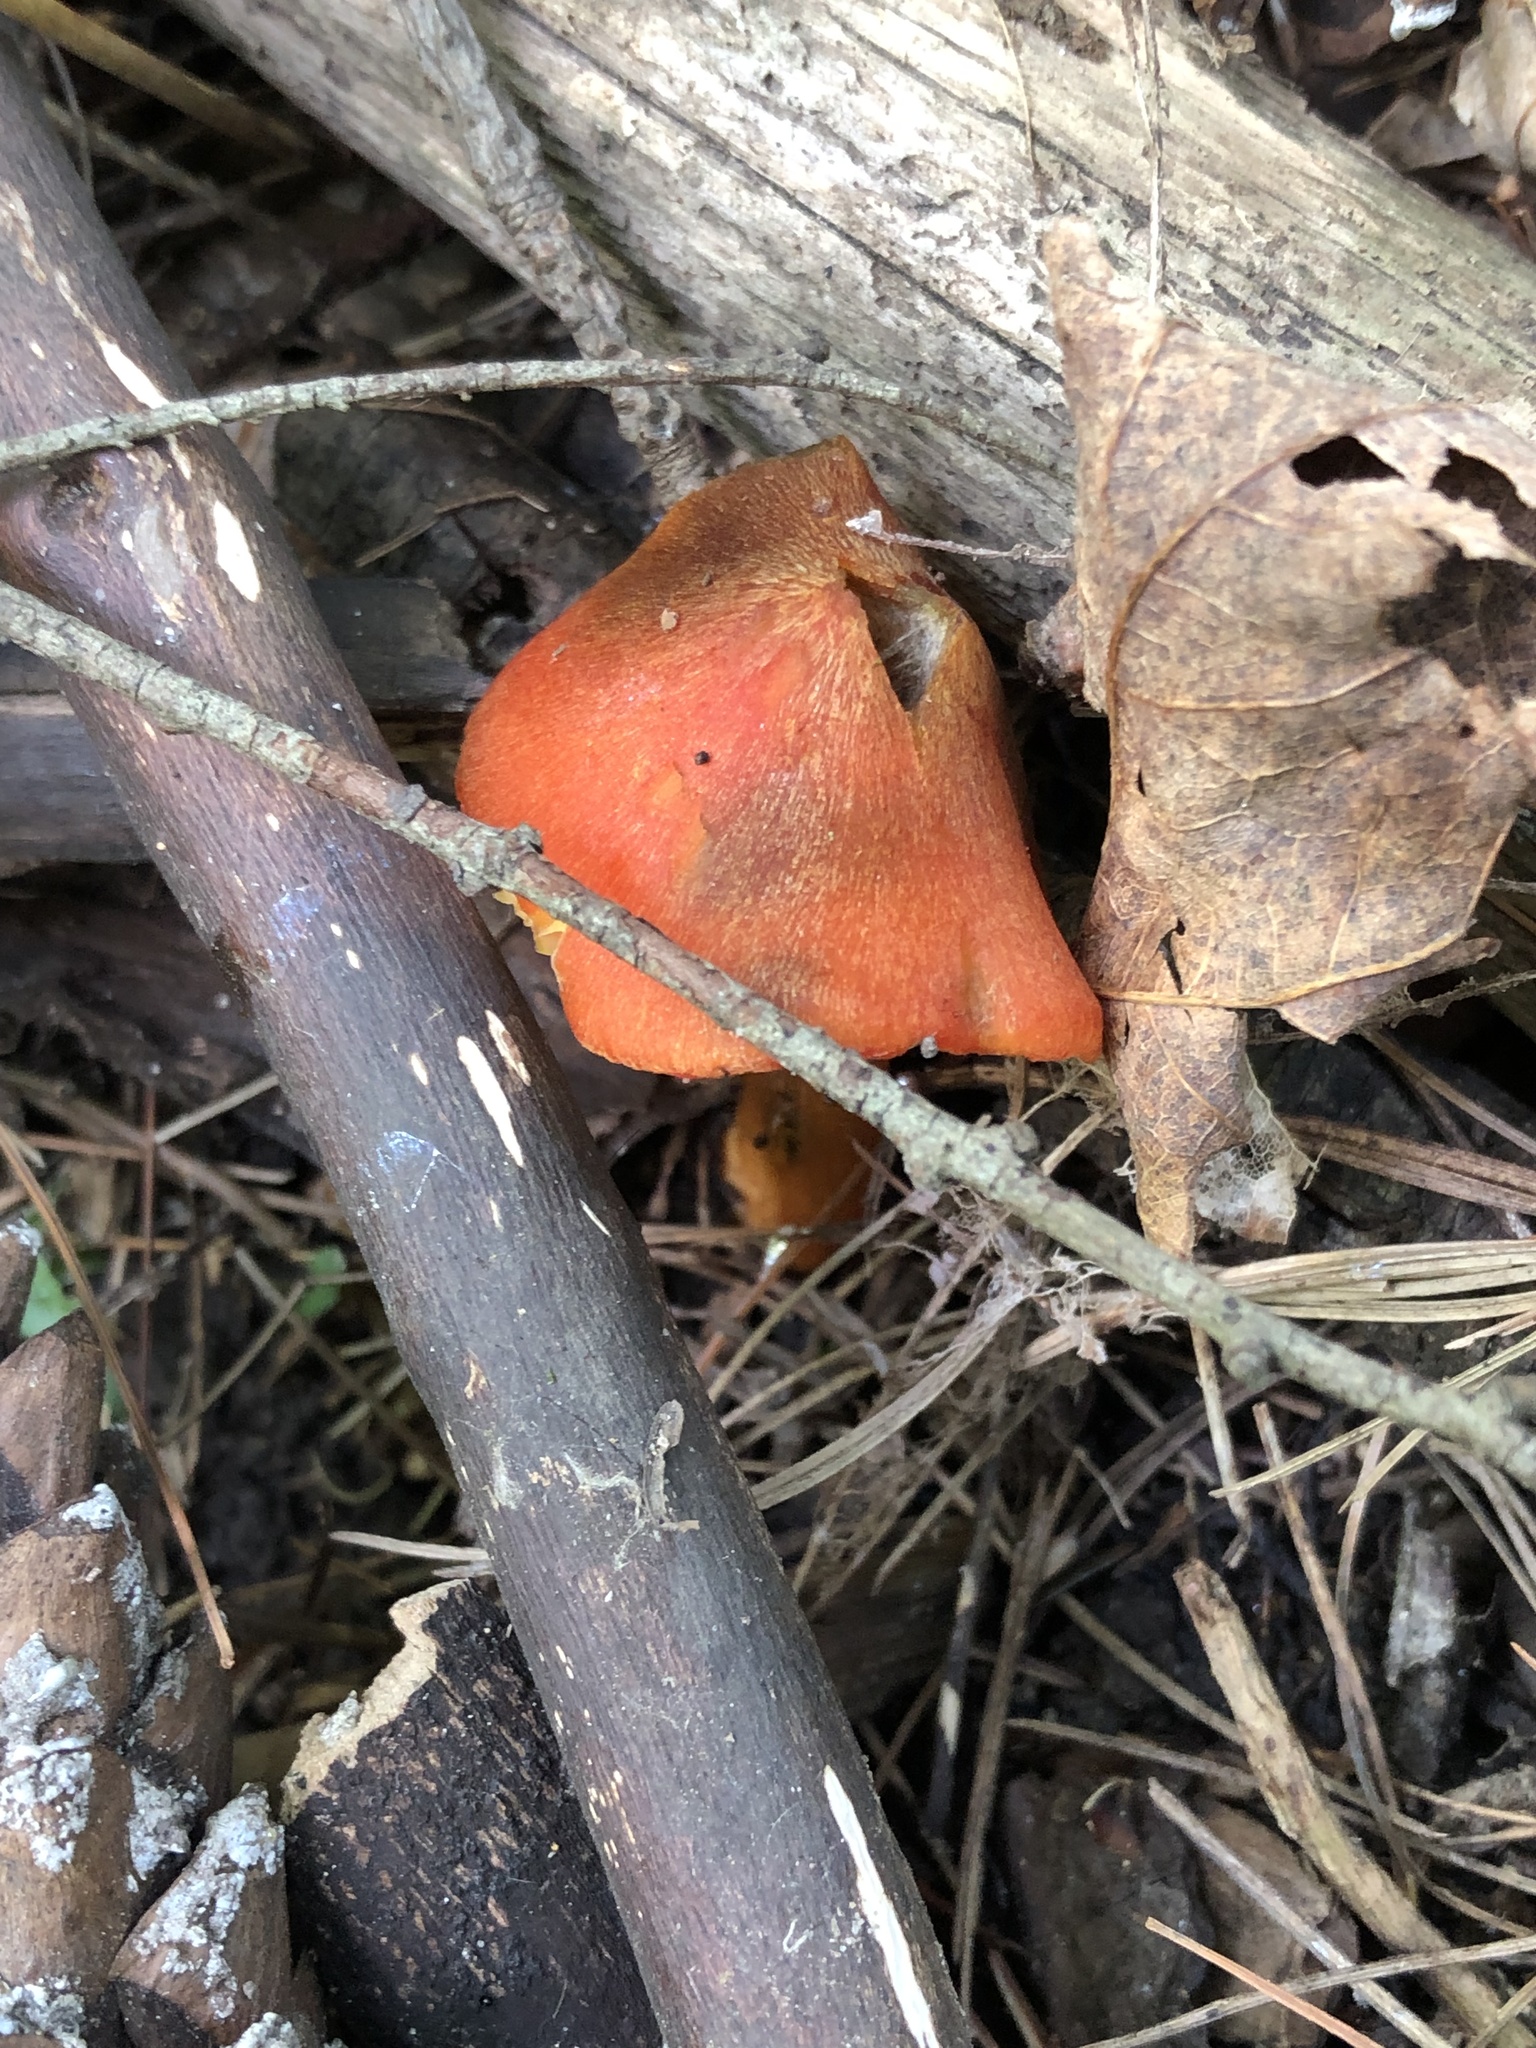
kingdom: Fungi
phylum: Basidiomycota
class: Agaricomycetes
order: Agaricales
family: Hygrophoraceae
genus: Hygrocybe
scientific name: Hygrocybe conica
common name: Blackening wax-cap
